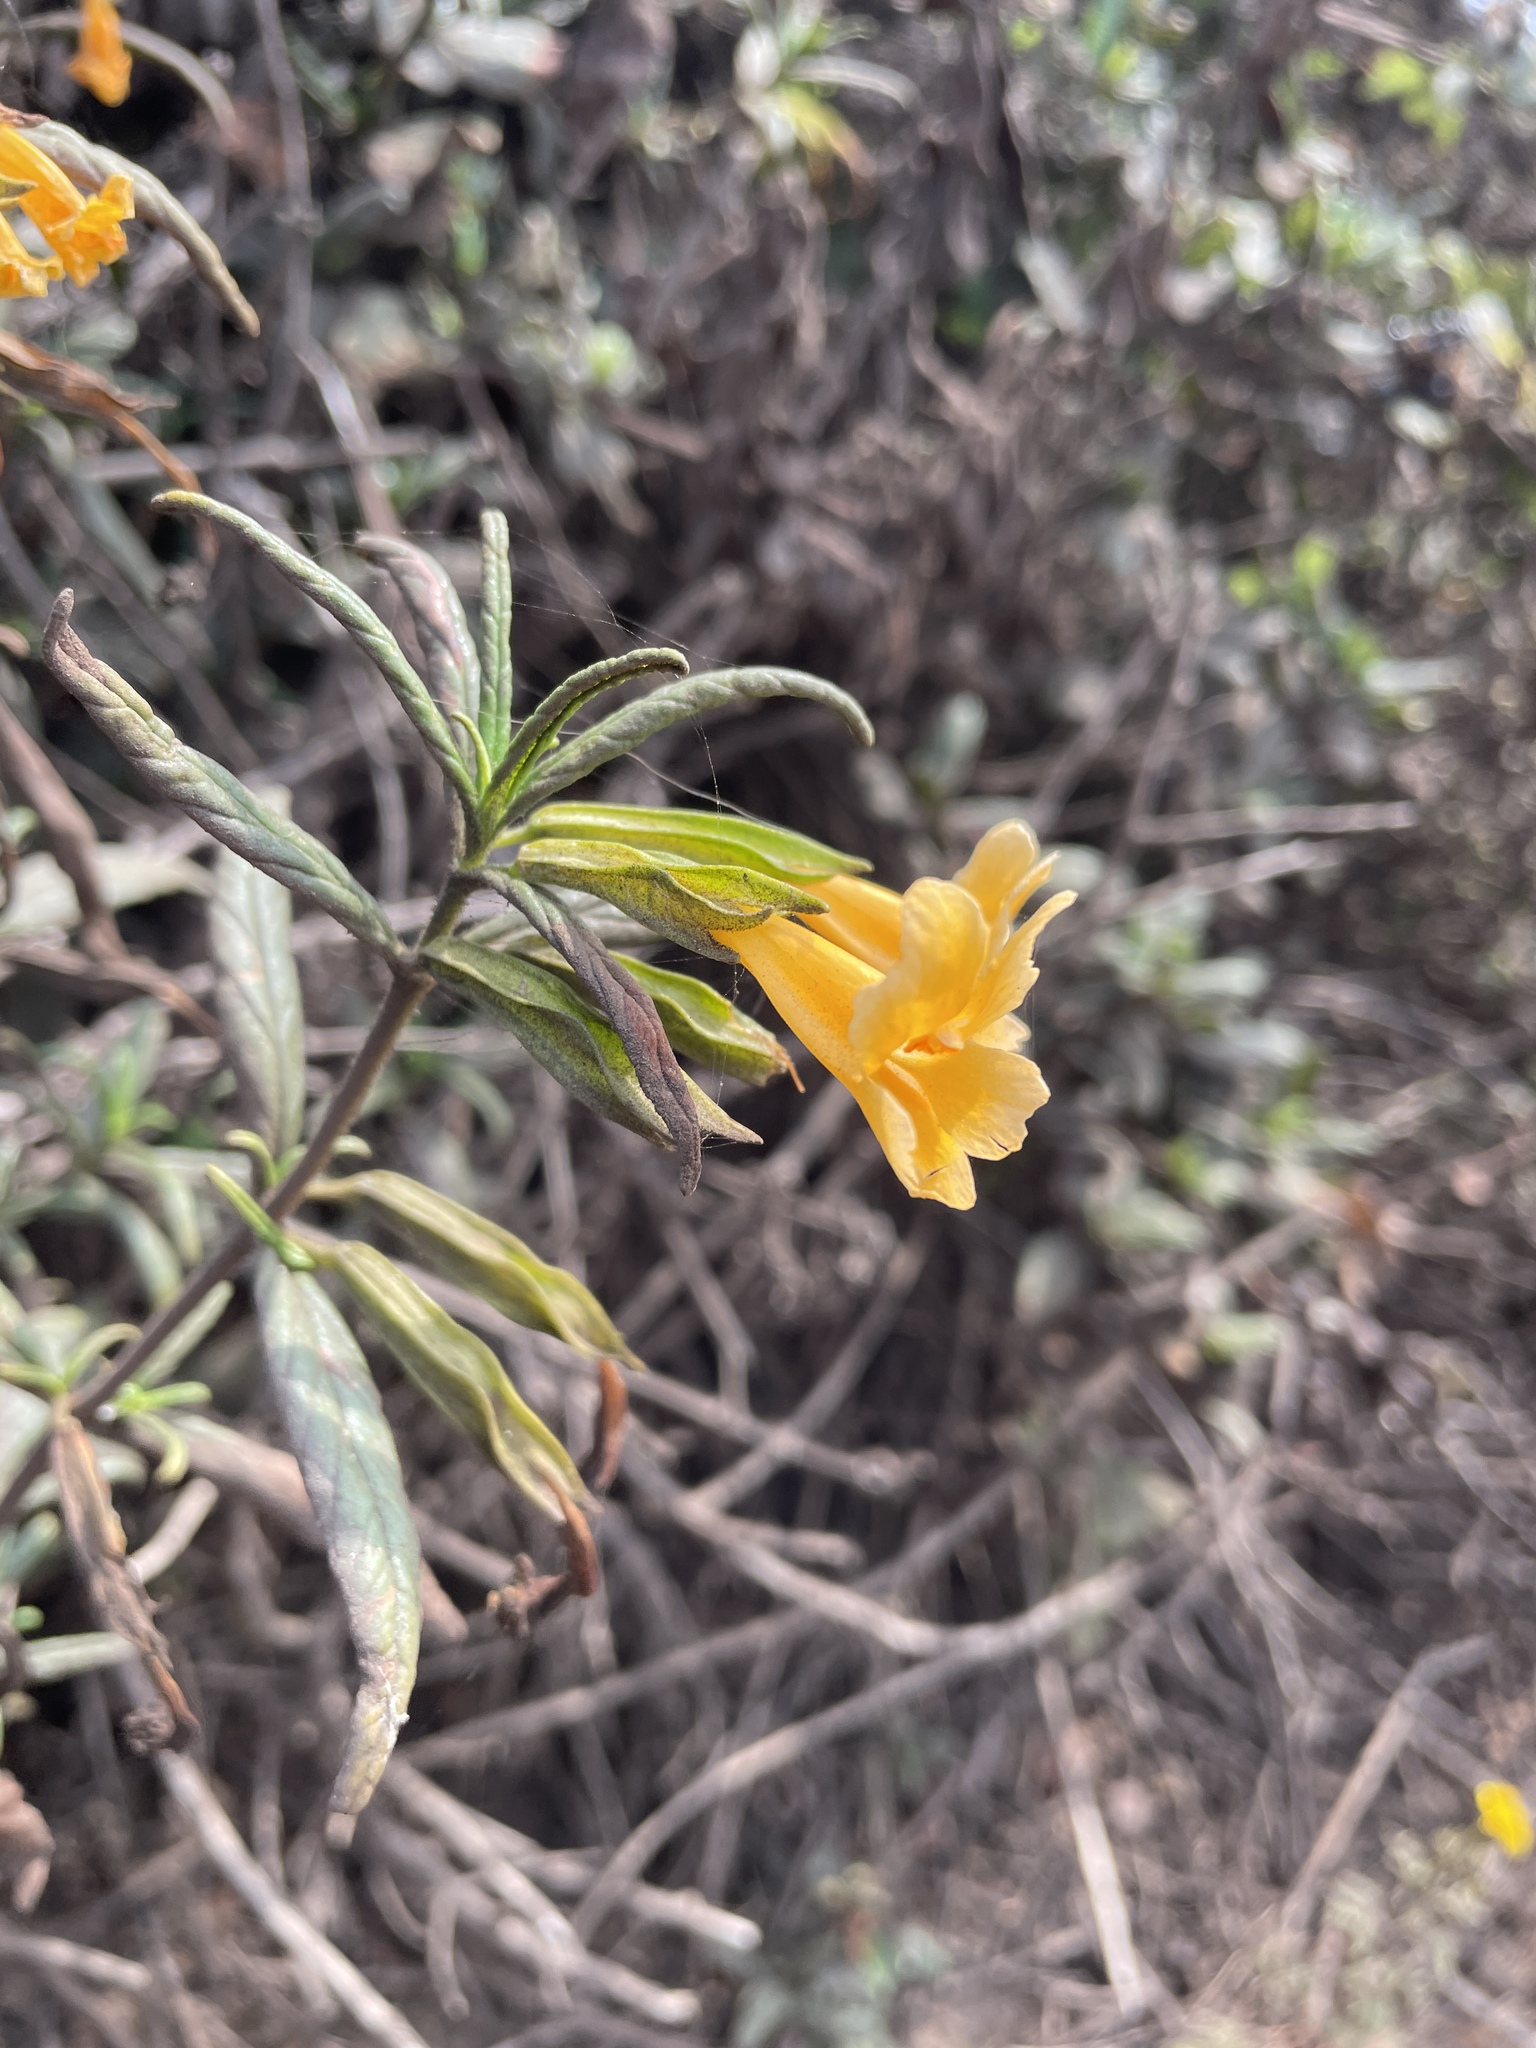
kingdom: Plantae
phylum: Tracheophyta
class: Magnoliopsida
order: Lamiales
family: Phrymaceae
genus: Diplacus
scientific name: Diplacus aurantiacus
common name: Bush monkey-flower
